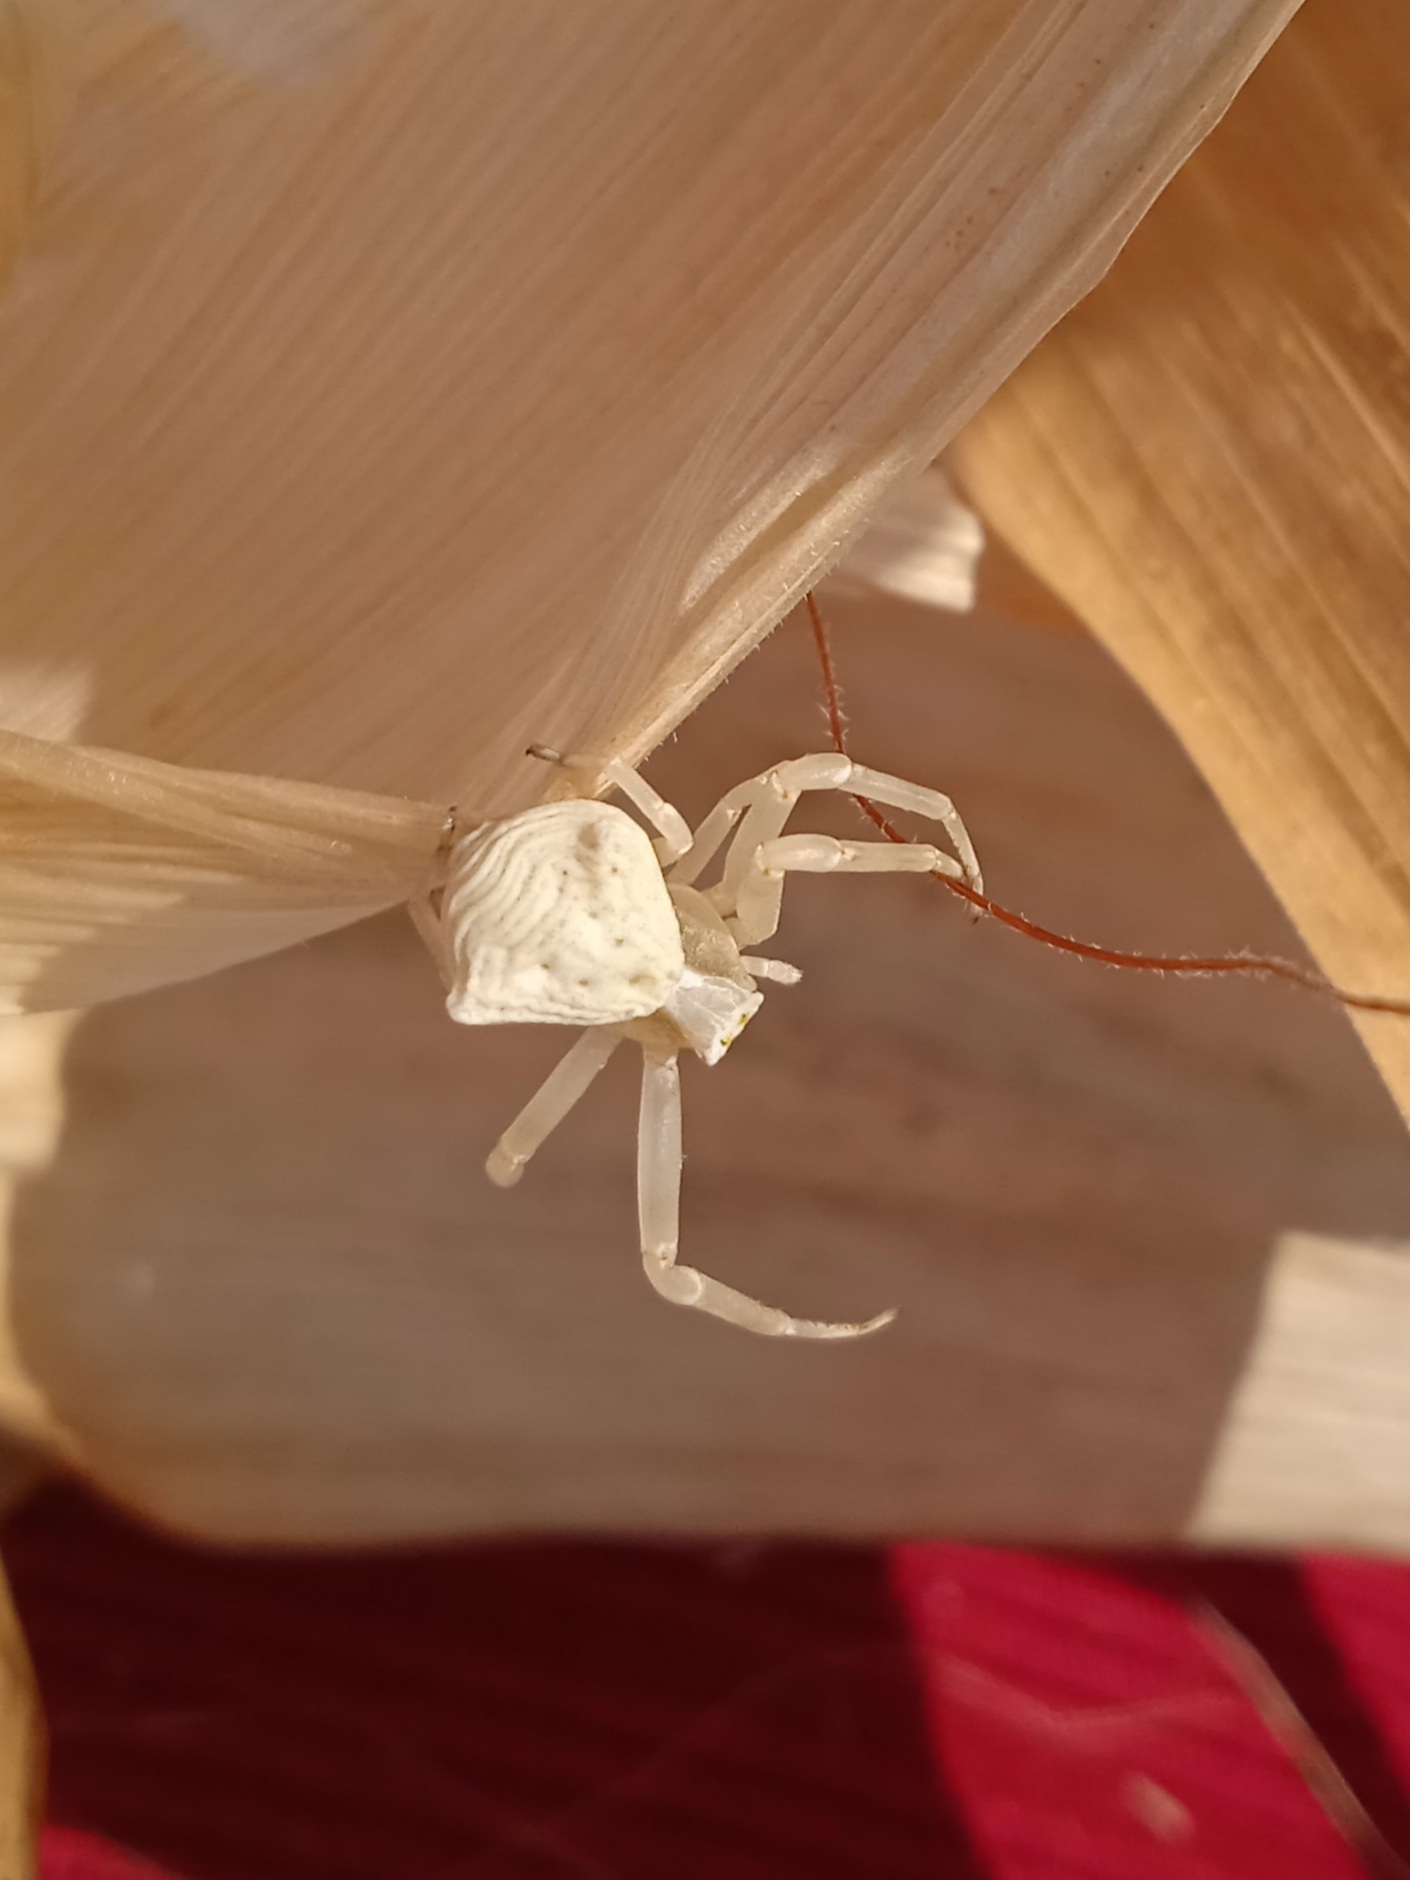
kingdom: Animalia
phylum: Arthropoda
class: Arachnida
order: Araneae
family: Thomisidae
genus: Thomisus
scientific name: Thomisus onustus
